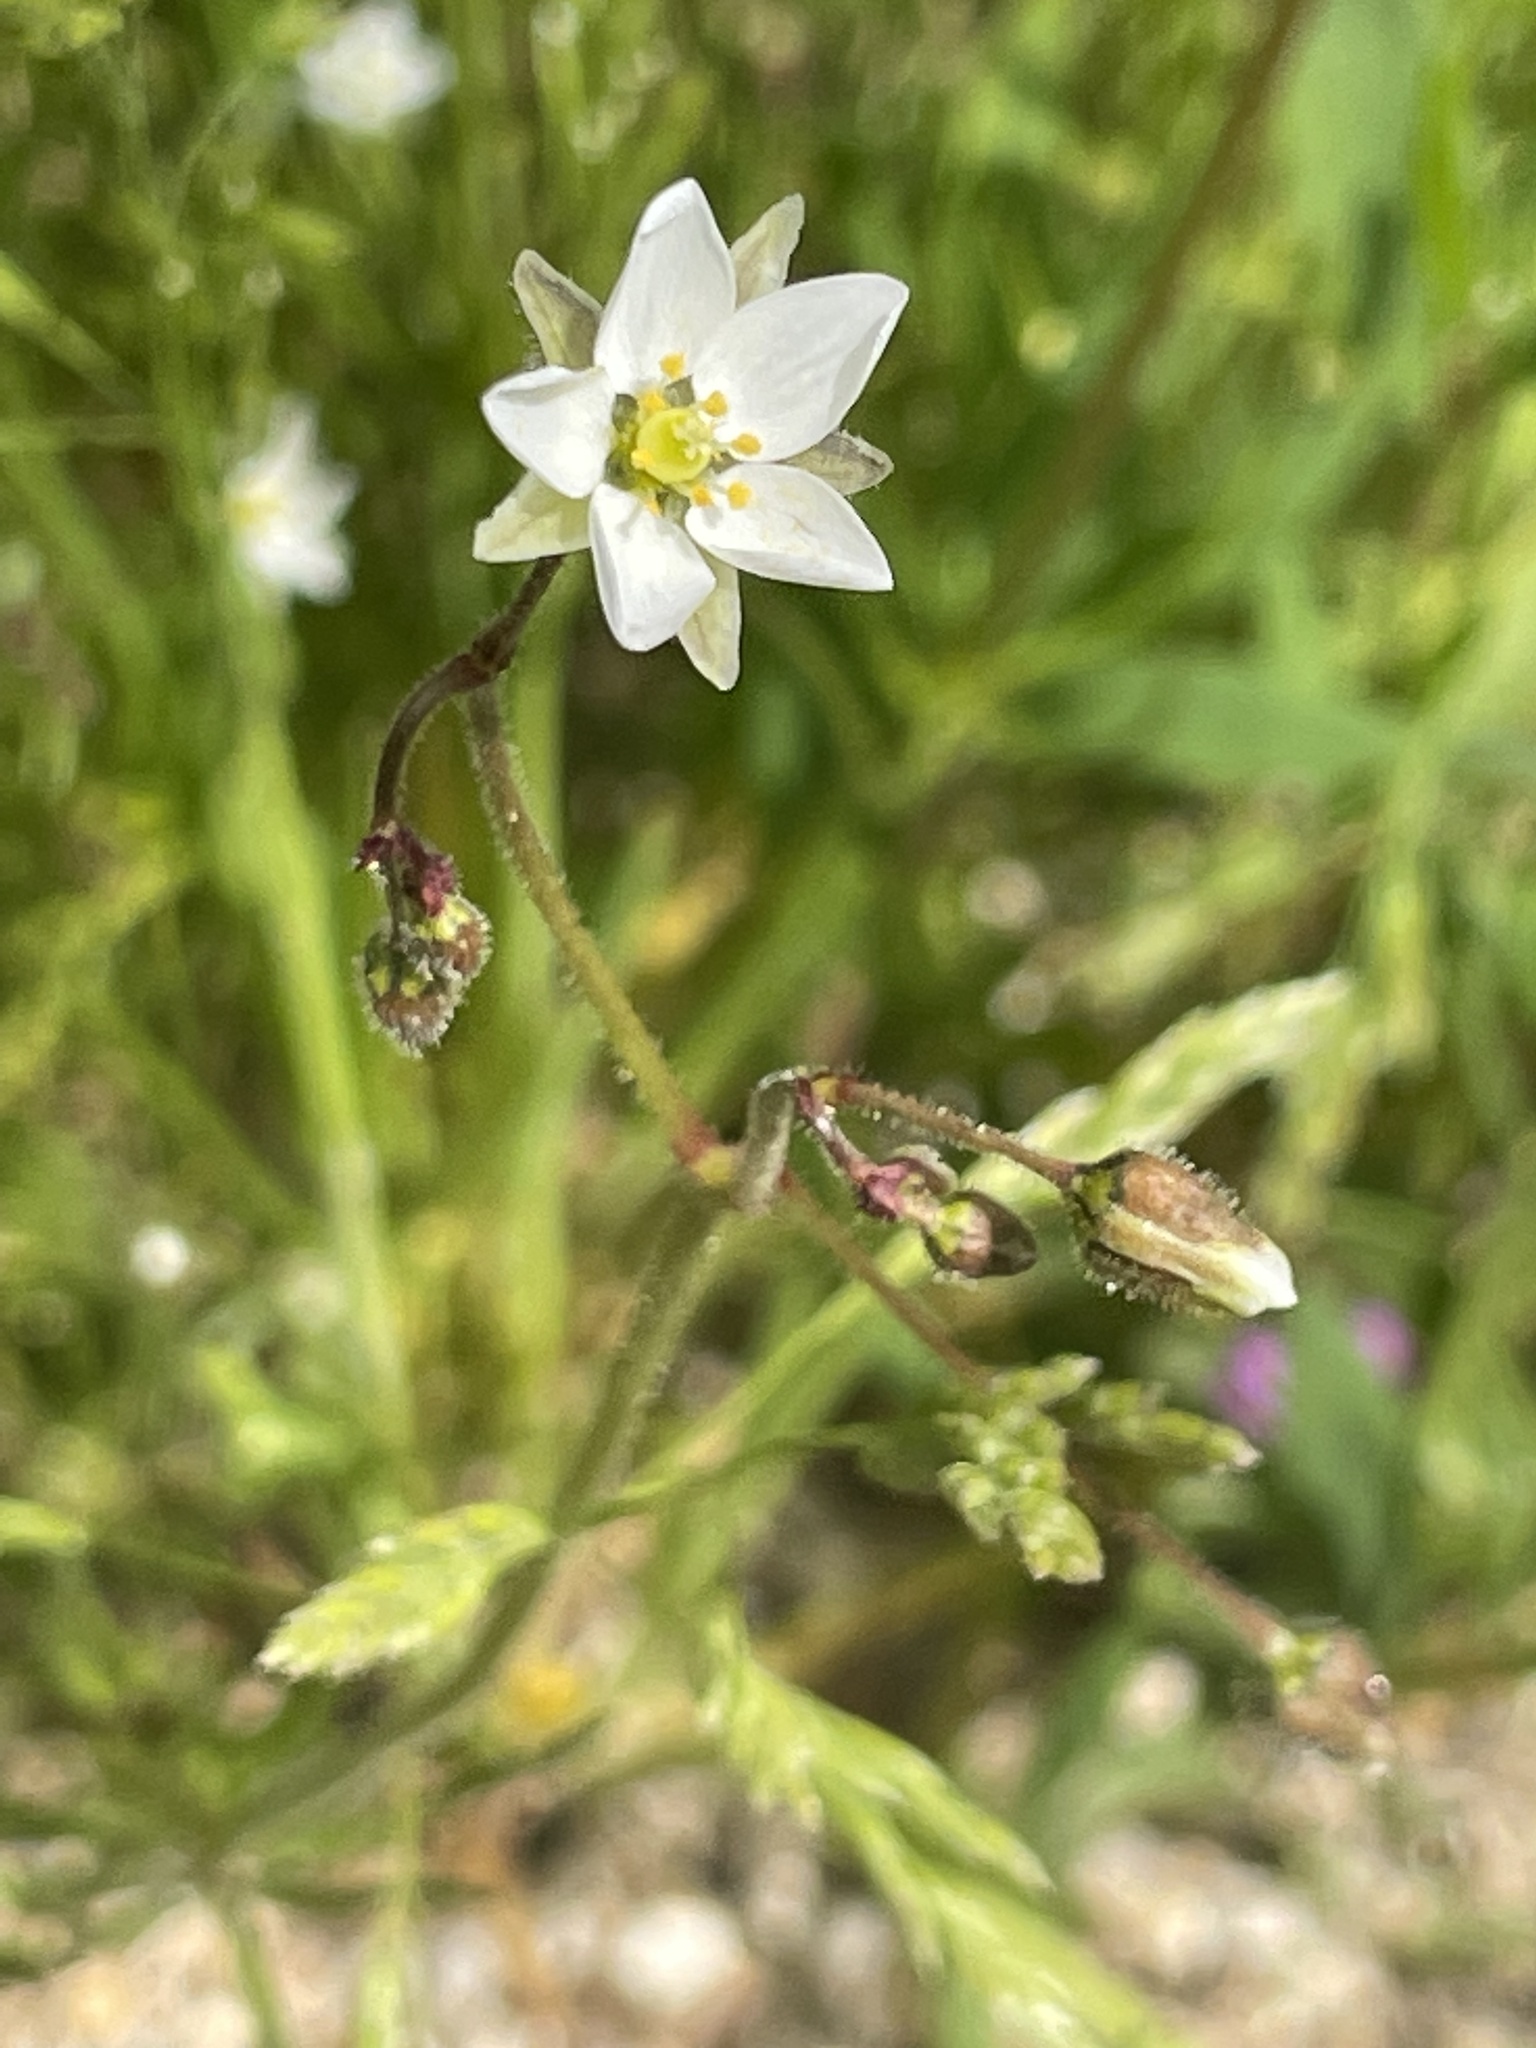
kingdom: Plantae
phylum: Tracheophyta
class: Magnoliopsida
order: Caryophyllales
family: Caryophyllaceae
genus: Spergula
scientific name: Spergula arvensis
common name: Corn spurrey
